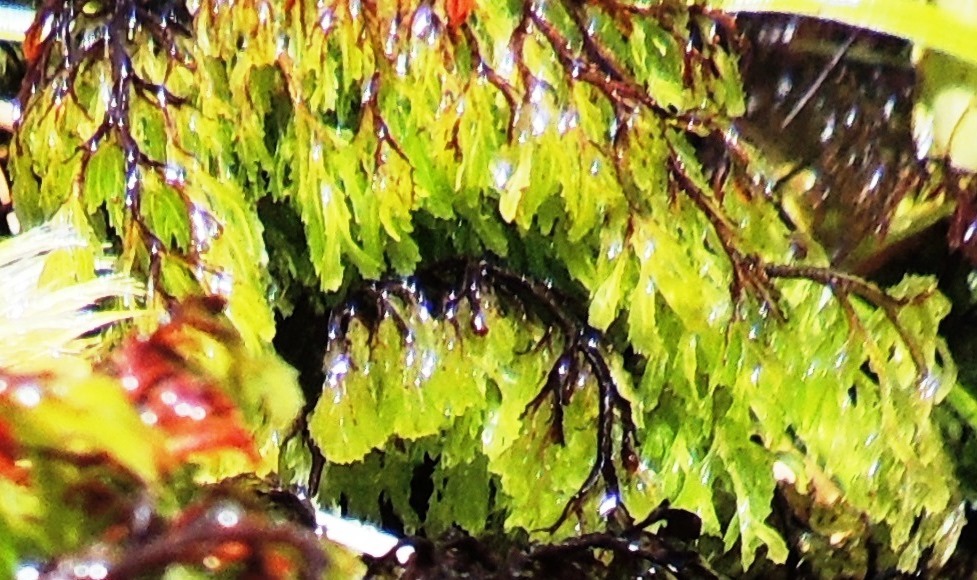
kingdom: Plantae
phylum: Tracheophyta
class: Polypodiopsida
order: Hymenophyllales
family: Hymenophyllaceae
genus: Hymenophyllum
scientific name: Hymenophyllum multifidum
